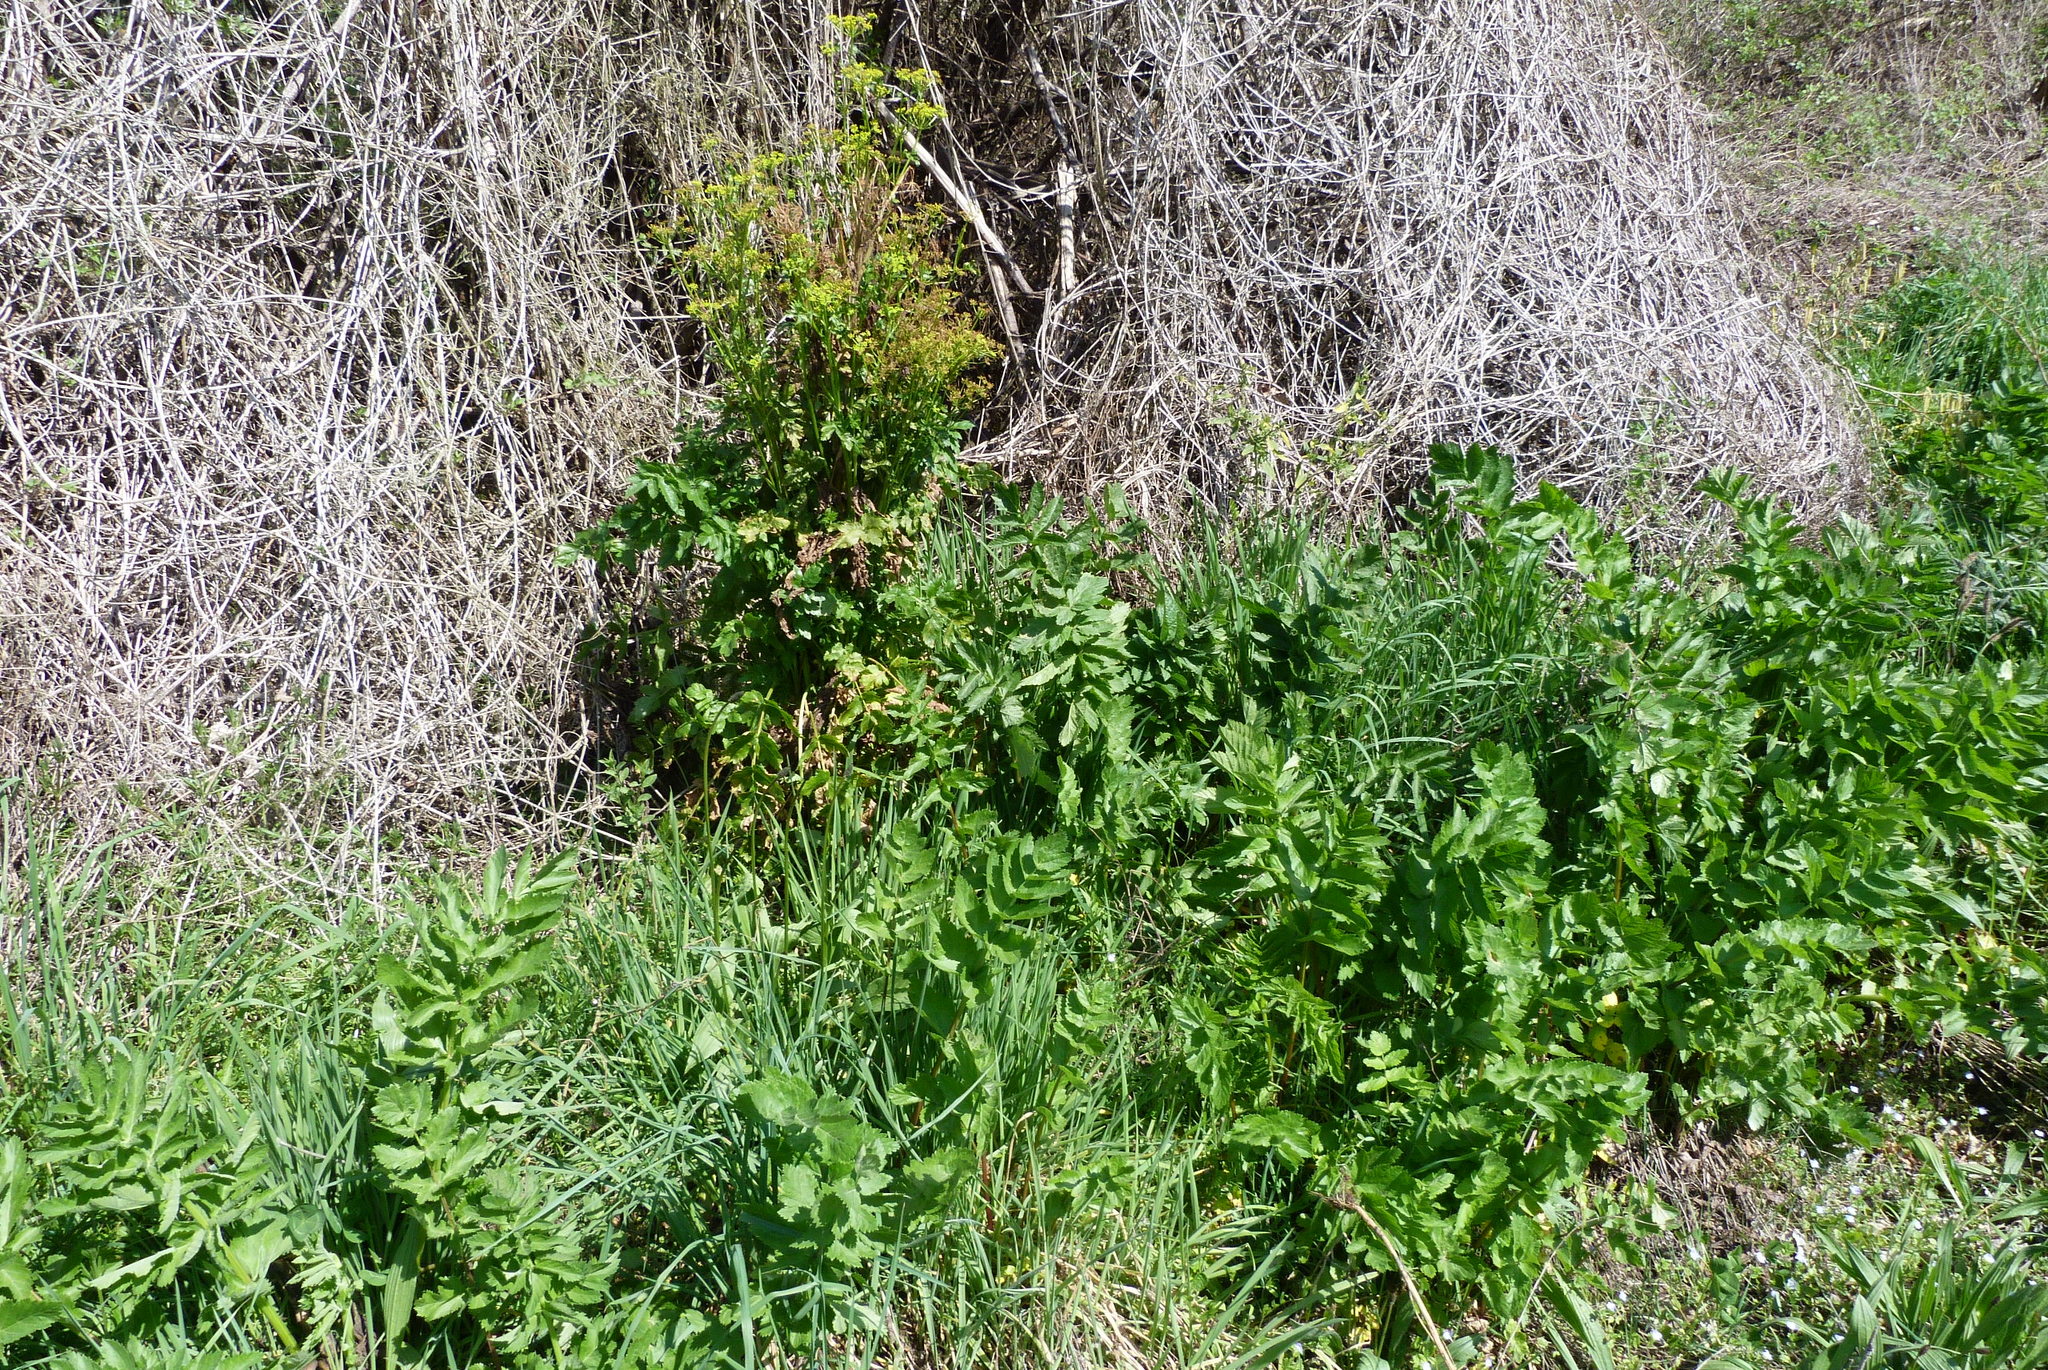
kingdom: Plantae
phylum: Tracheophyta
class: Magnoliopsida
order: Apiales
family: Apiaceae
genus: Pastinaca
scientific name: Pastinaca sativa
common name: Wild parsnip
